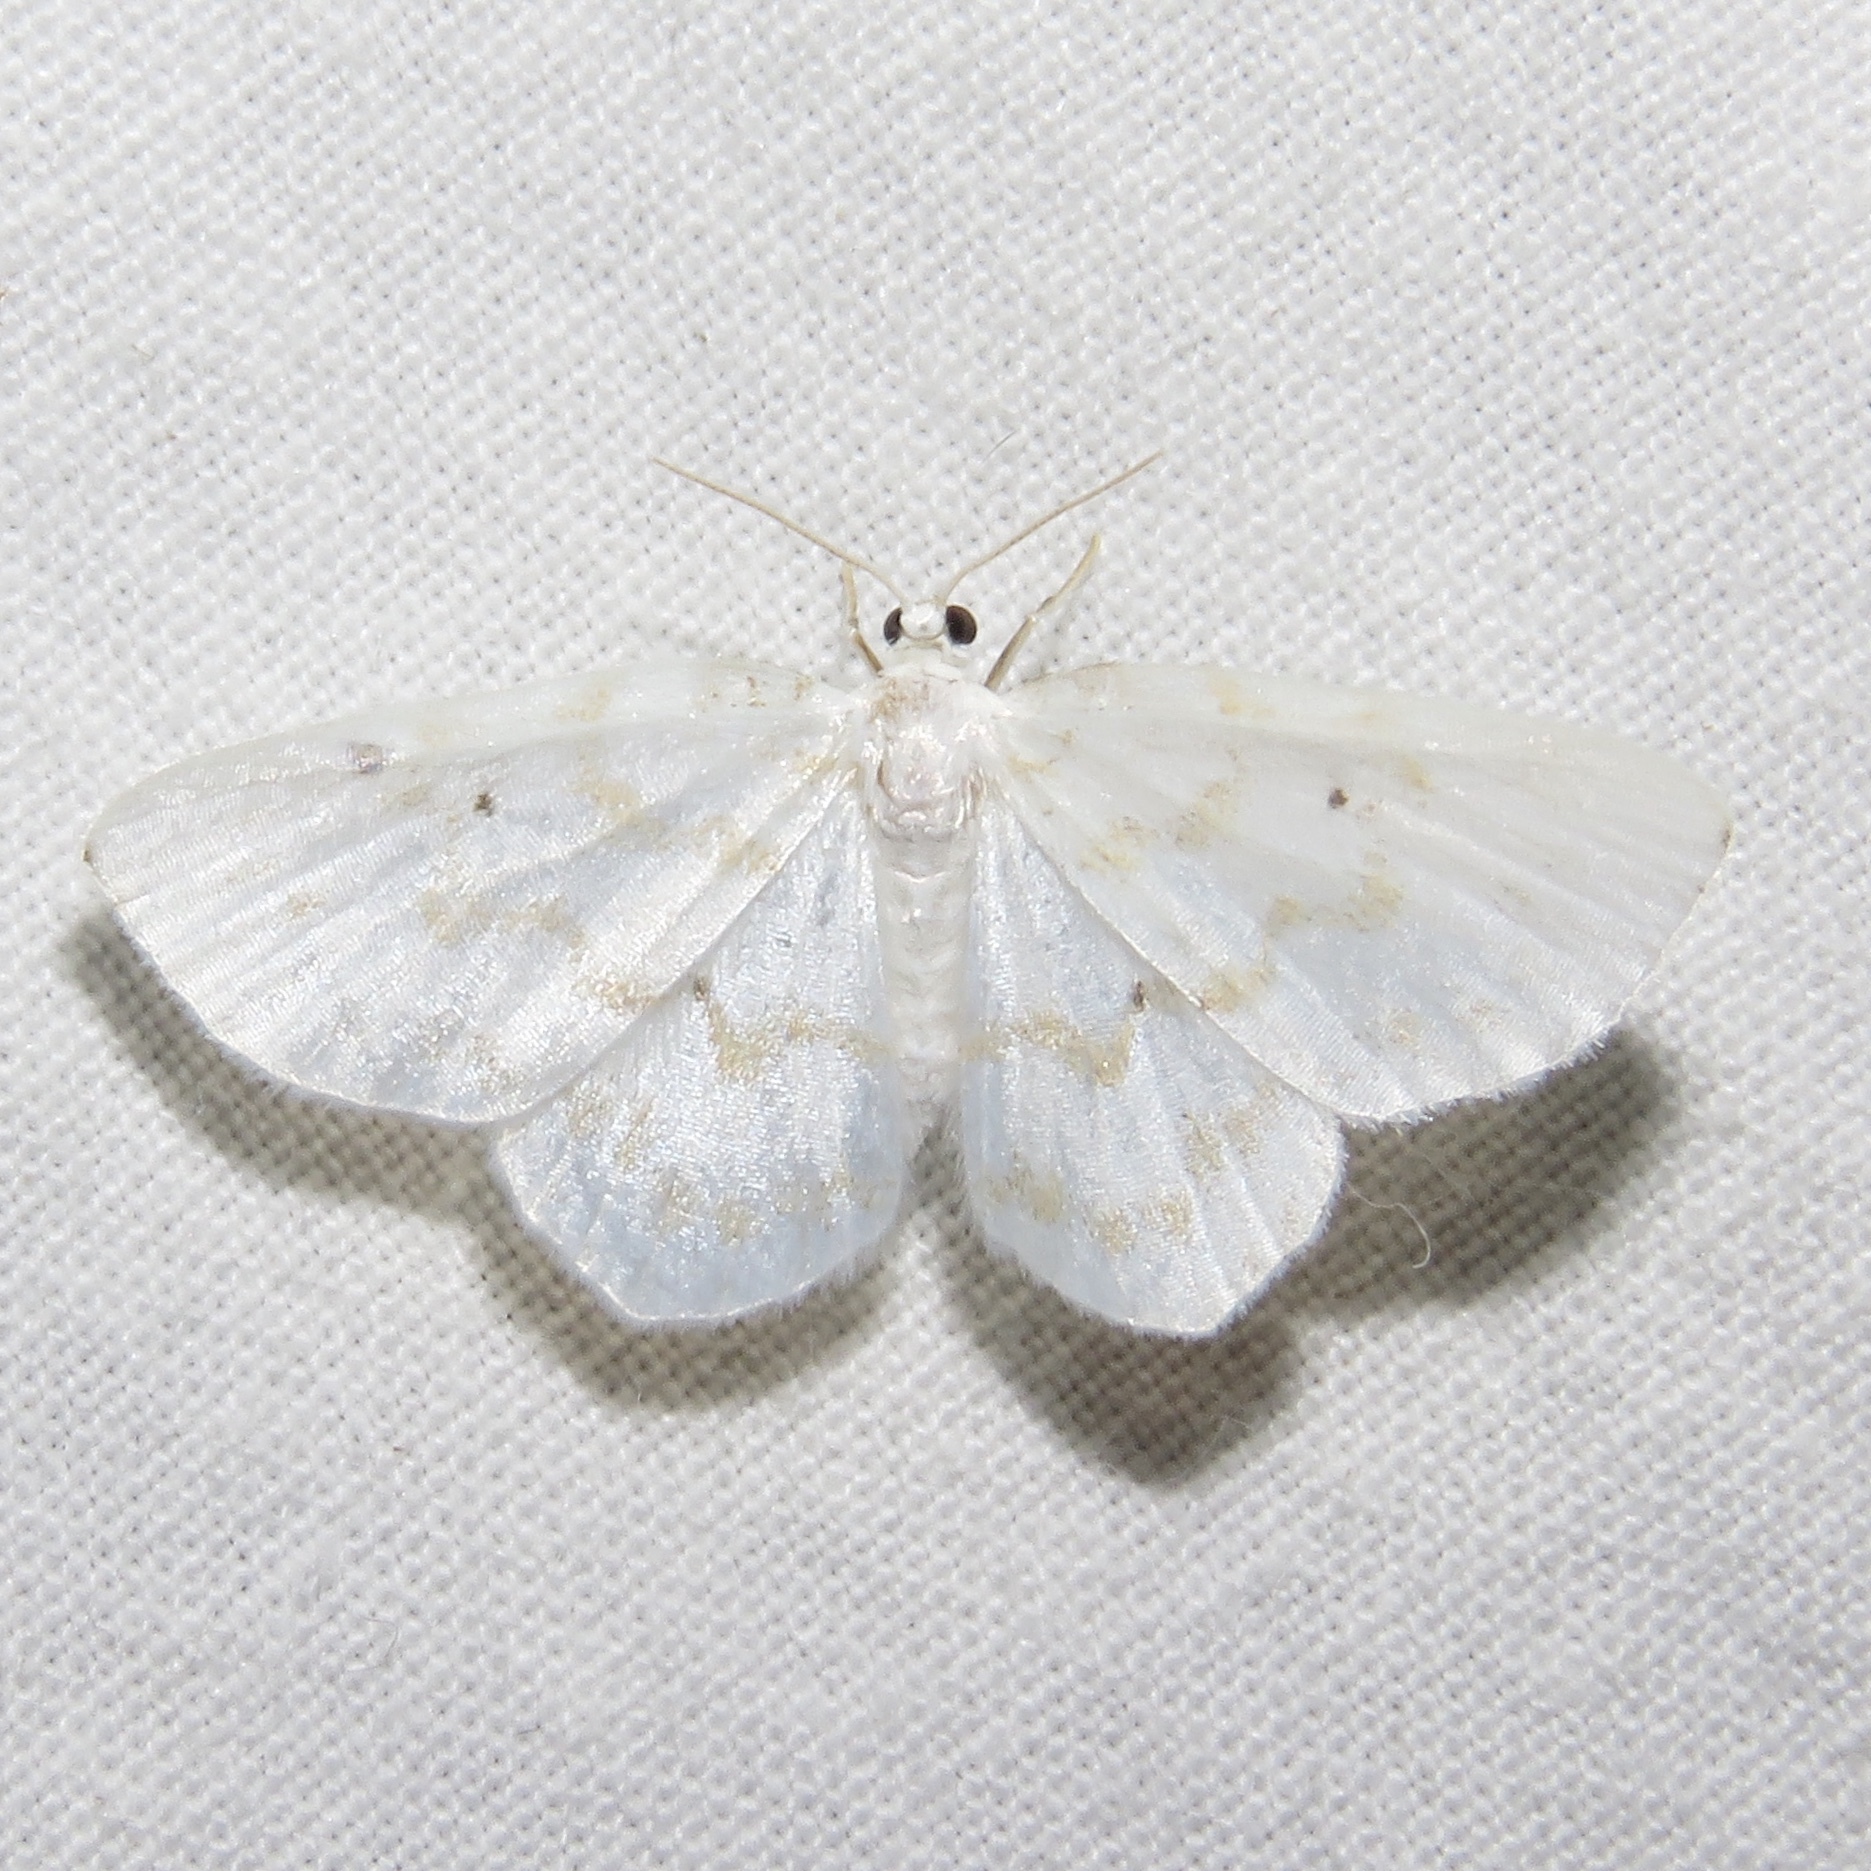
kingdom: Animalia
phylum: Arthropoda
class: Insecta
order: Lepidoptera
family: Geometridae
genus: Hydrelia
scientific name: Hydrelia albifera
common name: Fragile white carpet
